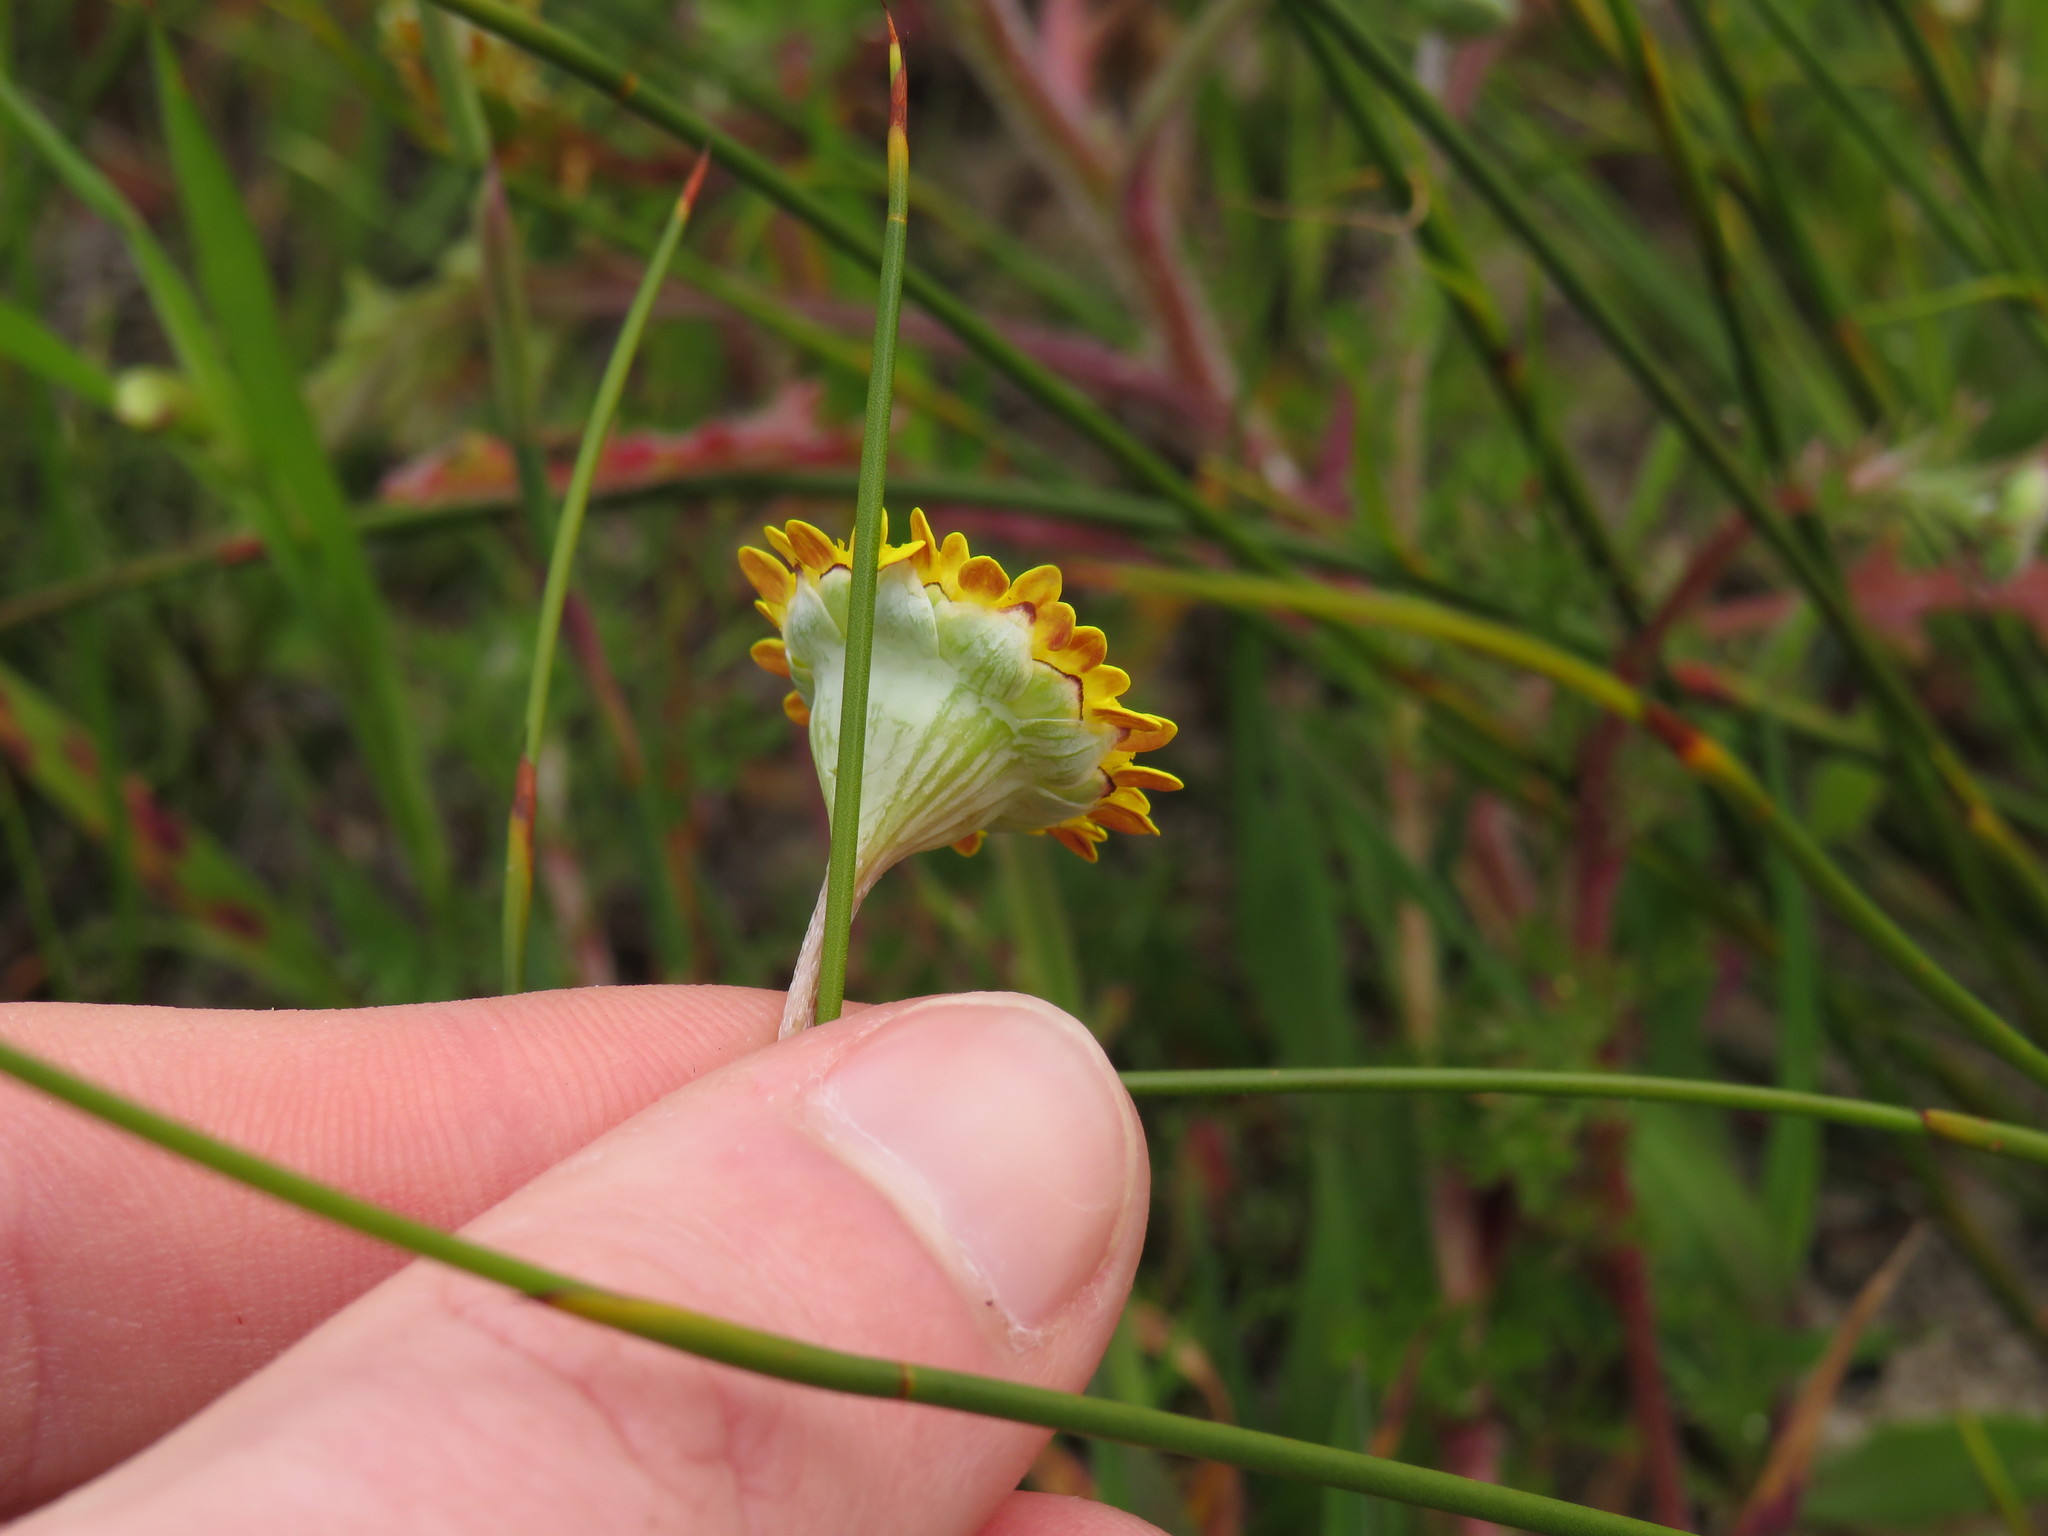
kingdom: Plantae
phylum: Tracheophyta
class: Magnoliopsida
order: Asterales
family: Asteraceae
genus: Cotula
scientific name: Cotula pruinosa
